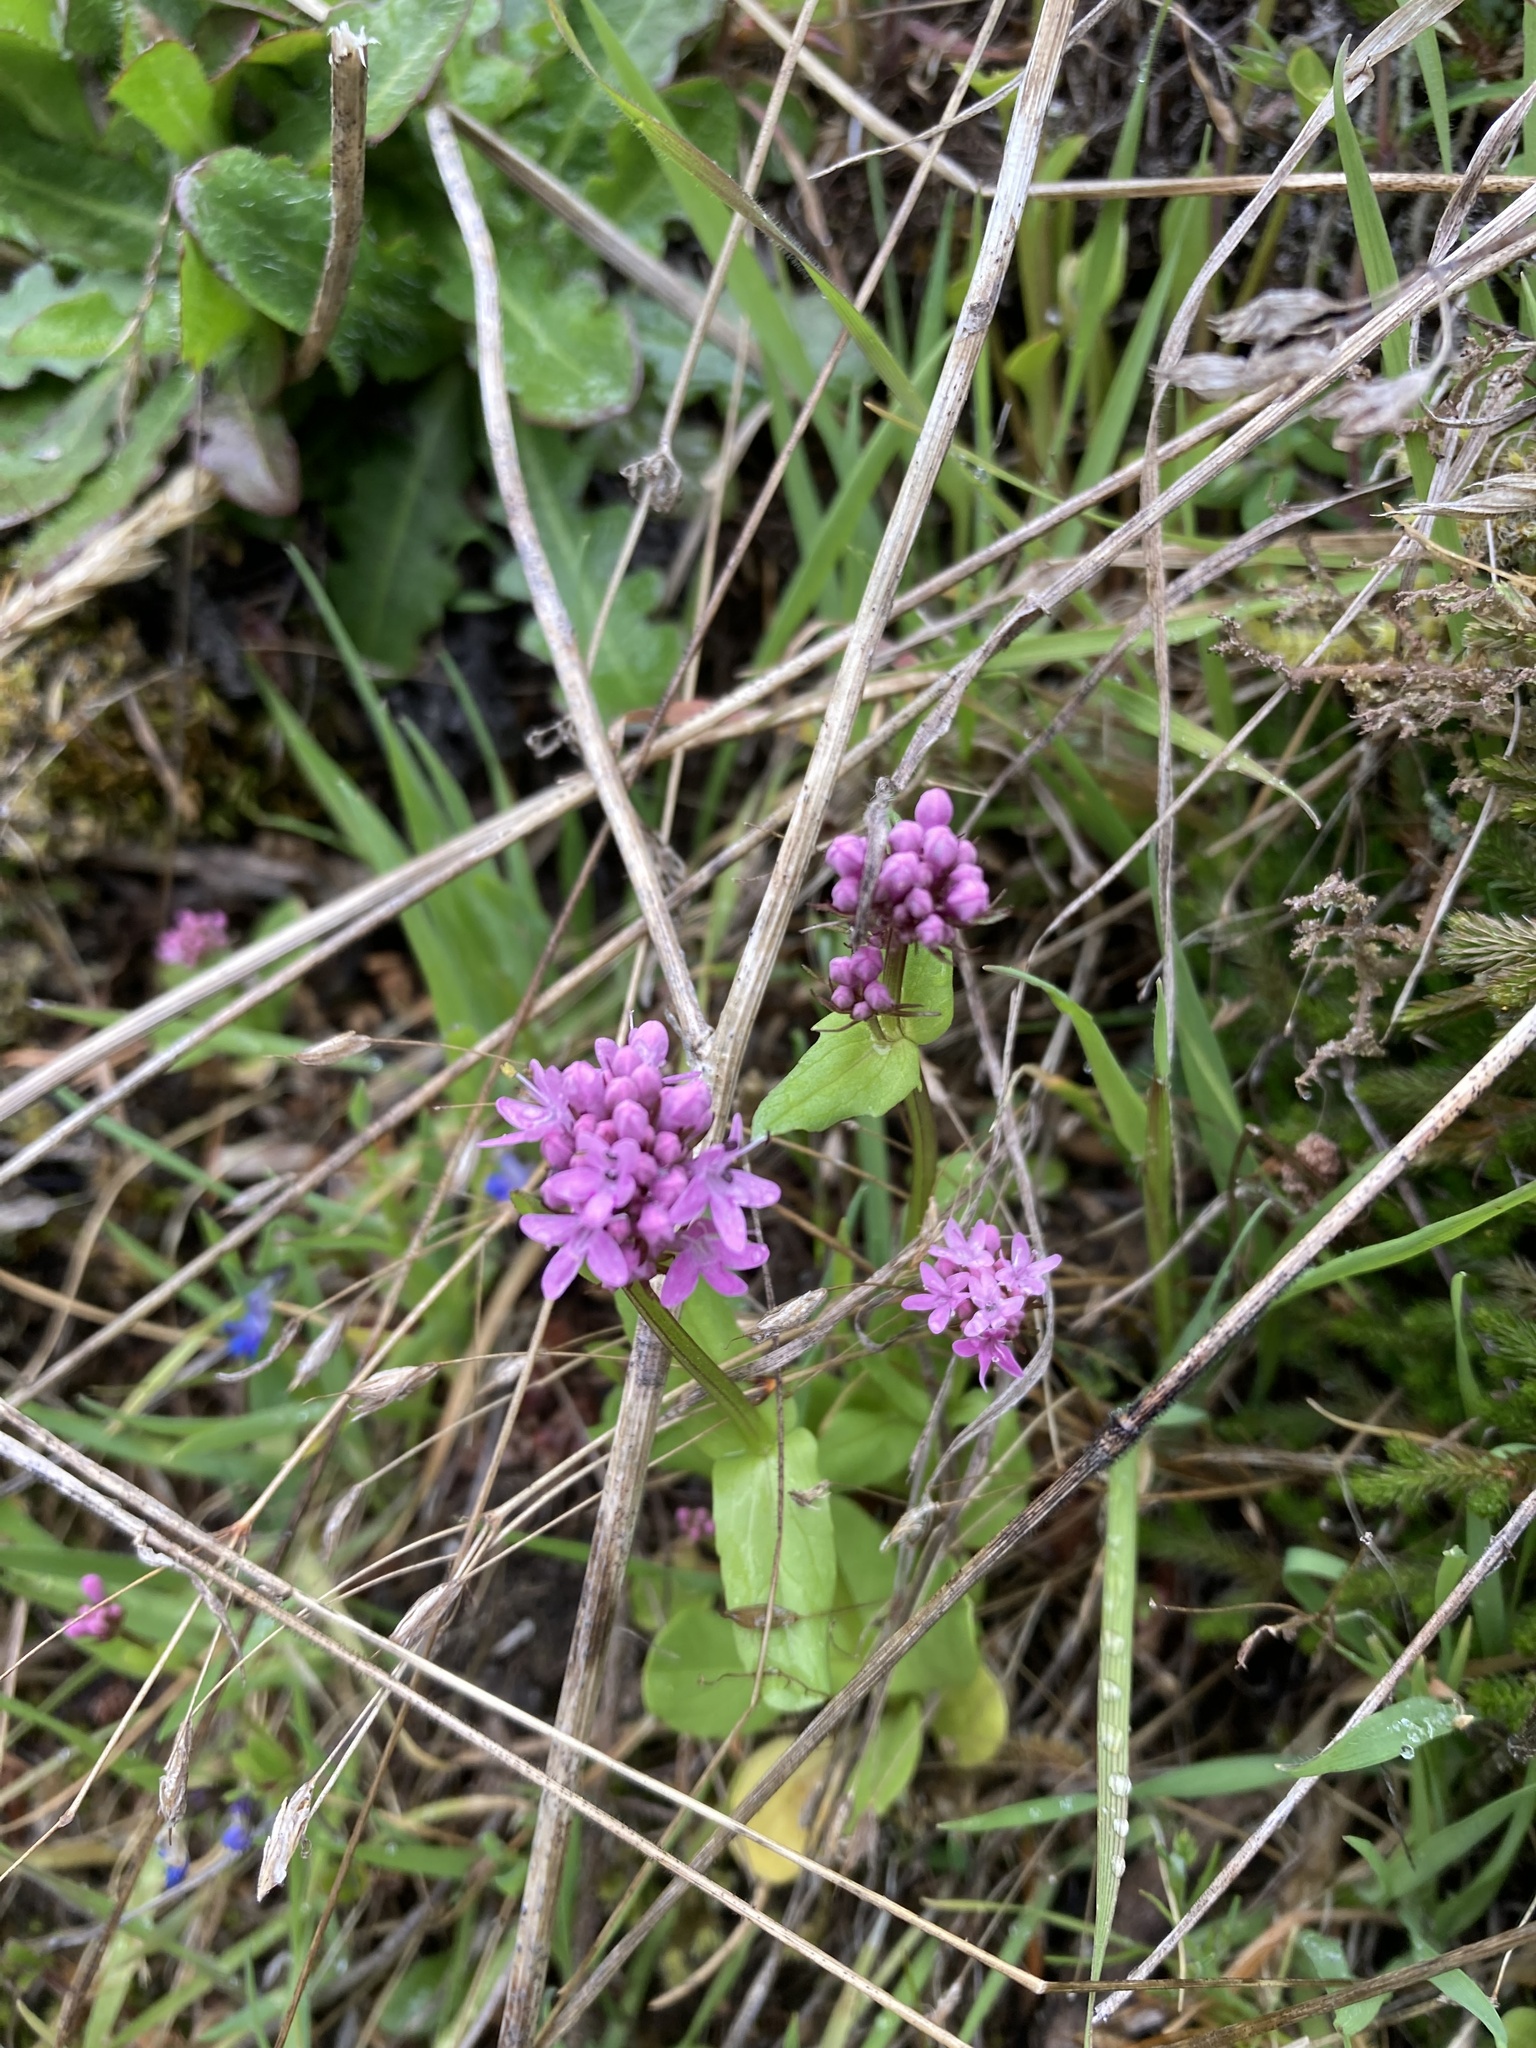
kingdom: Plantae
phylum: Tracheophyta
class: Magnoliopsida
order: Dipsacales
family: Caprifoliaceae
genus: Plectritis
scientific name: Plectritis congesta
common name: Pink plectritis
